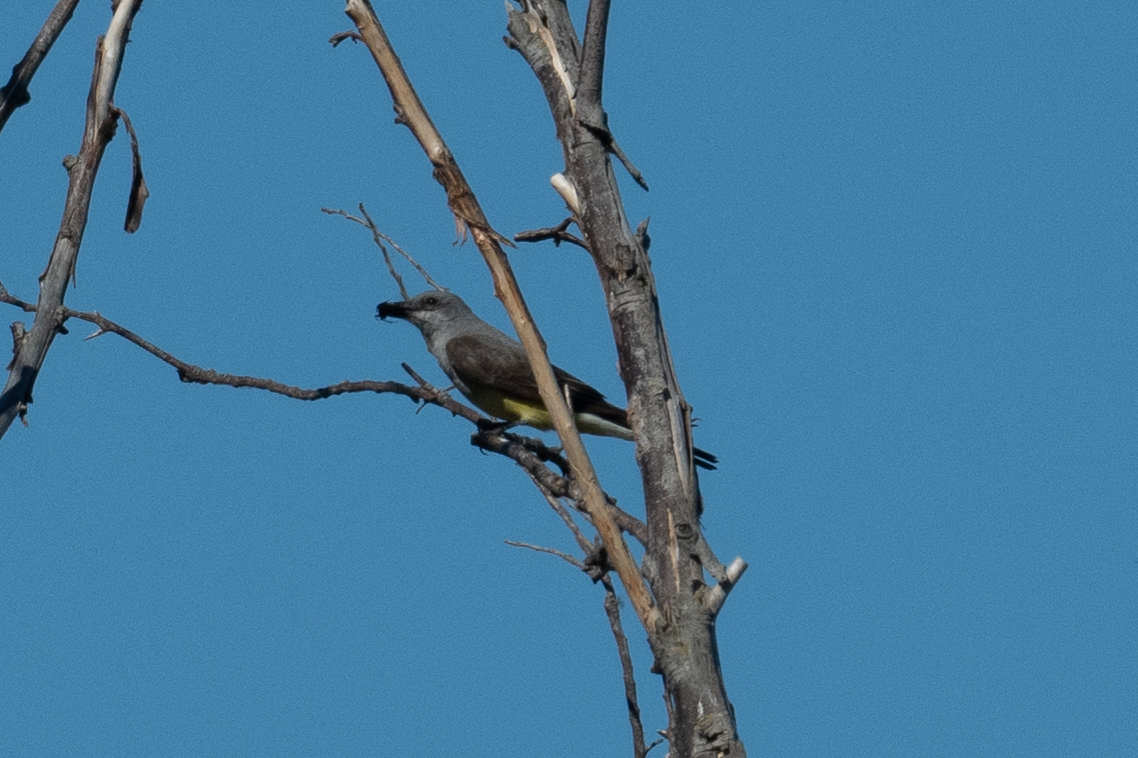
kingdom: Animalia
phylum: Chordata
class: Aves
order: Passeriformes
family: Tyrannidae
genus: Tyrannus
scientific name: Tyrannus verticalis
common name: Western kingbird
